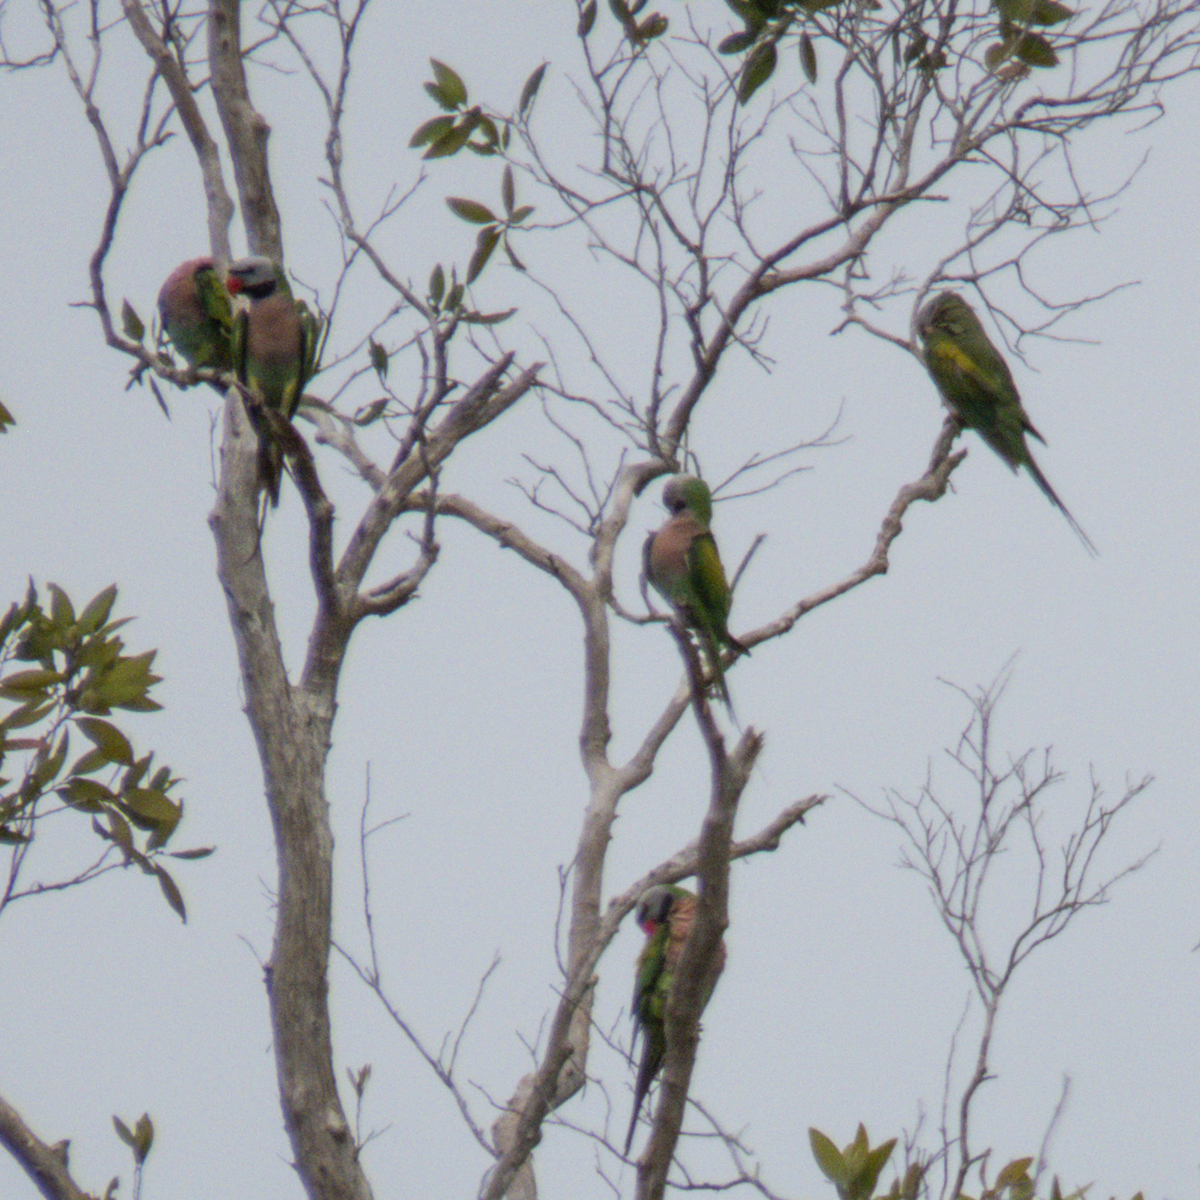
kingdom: Animalia
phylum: Chordata
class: Aves
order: Psittaciformes
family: Psittacidae
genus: Psittacula
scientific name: Psittacula alexandri
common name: Red-breasted parakeet
